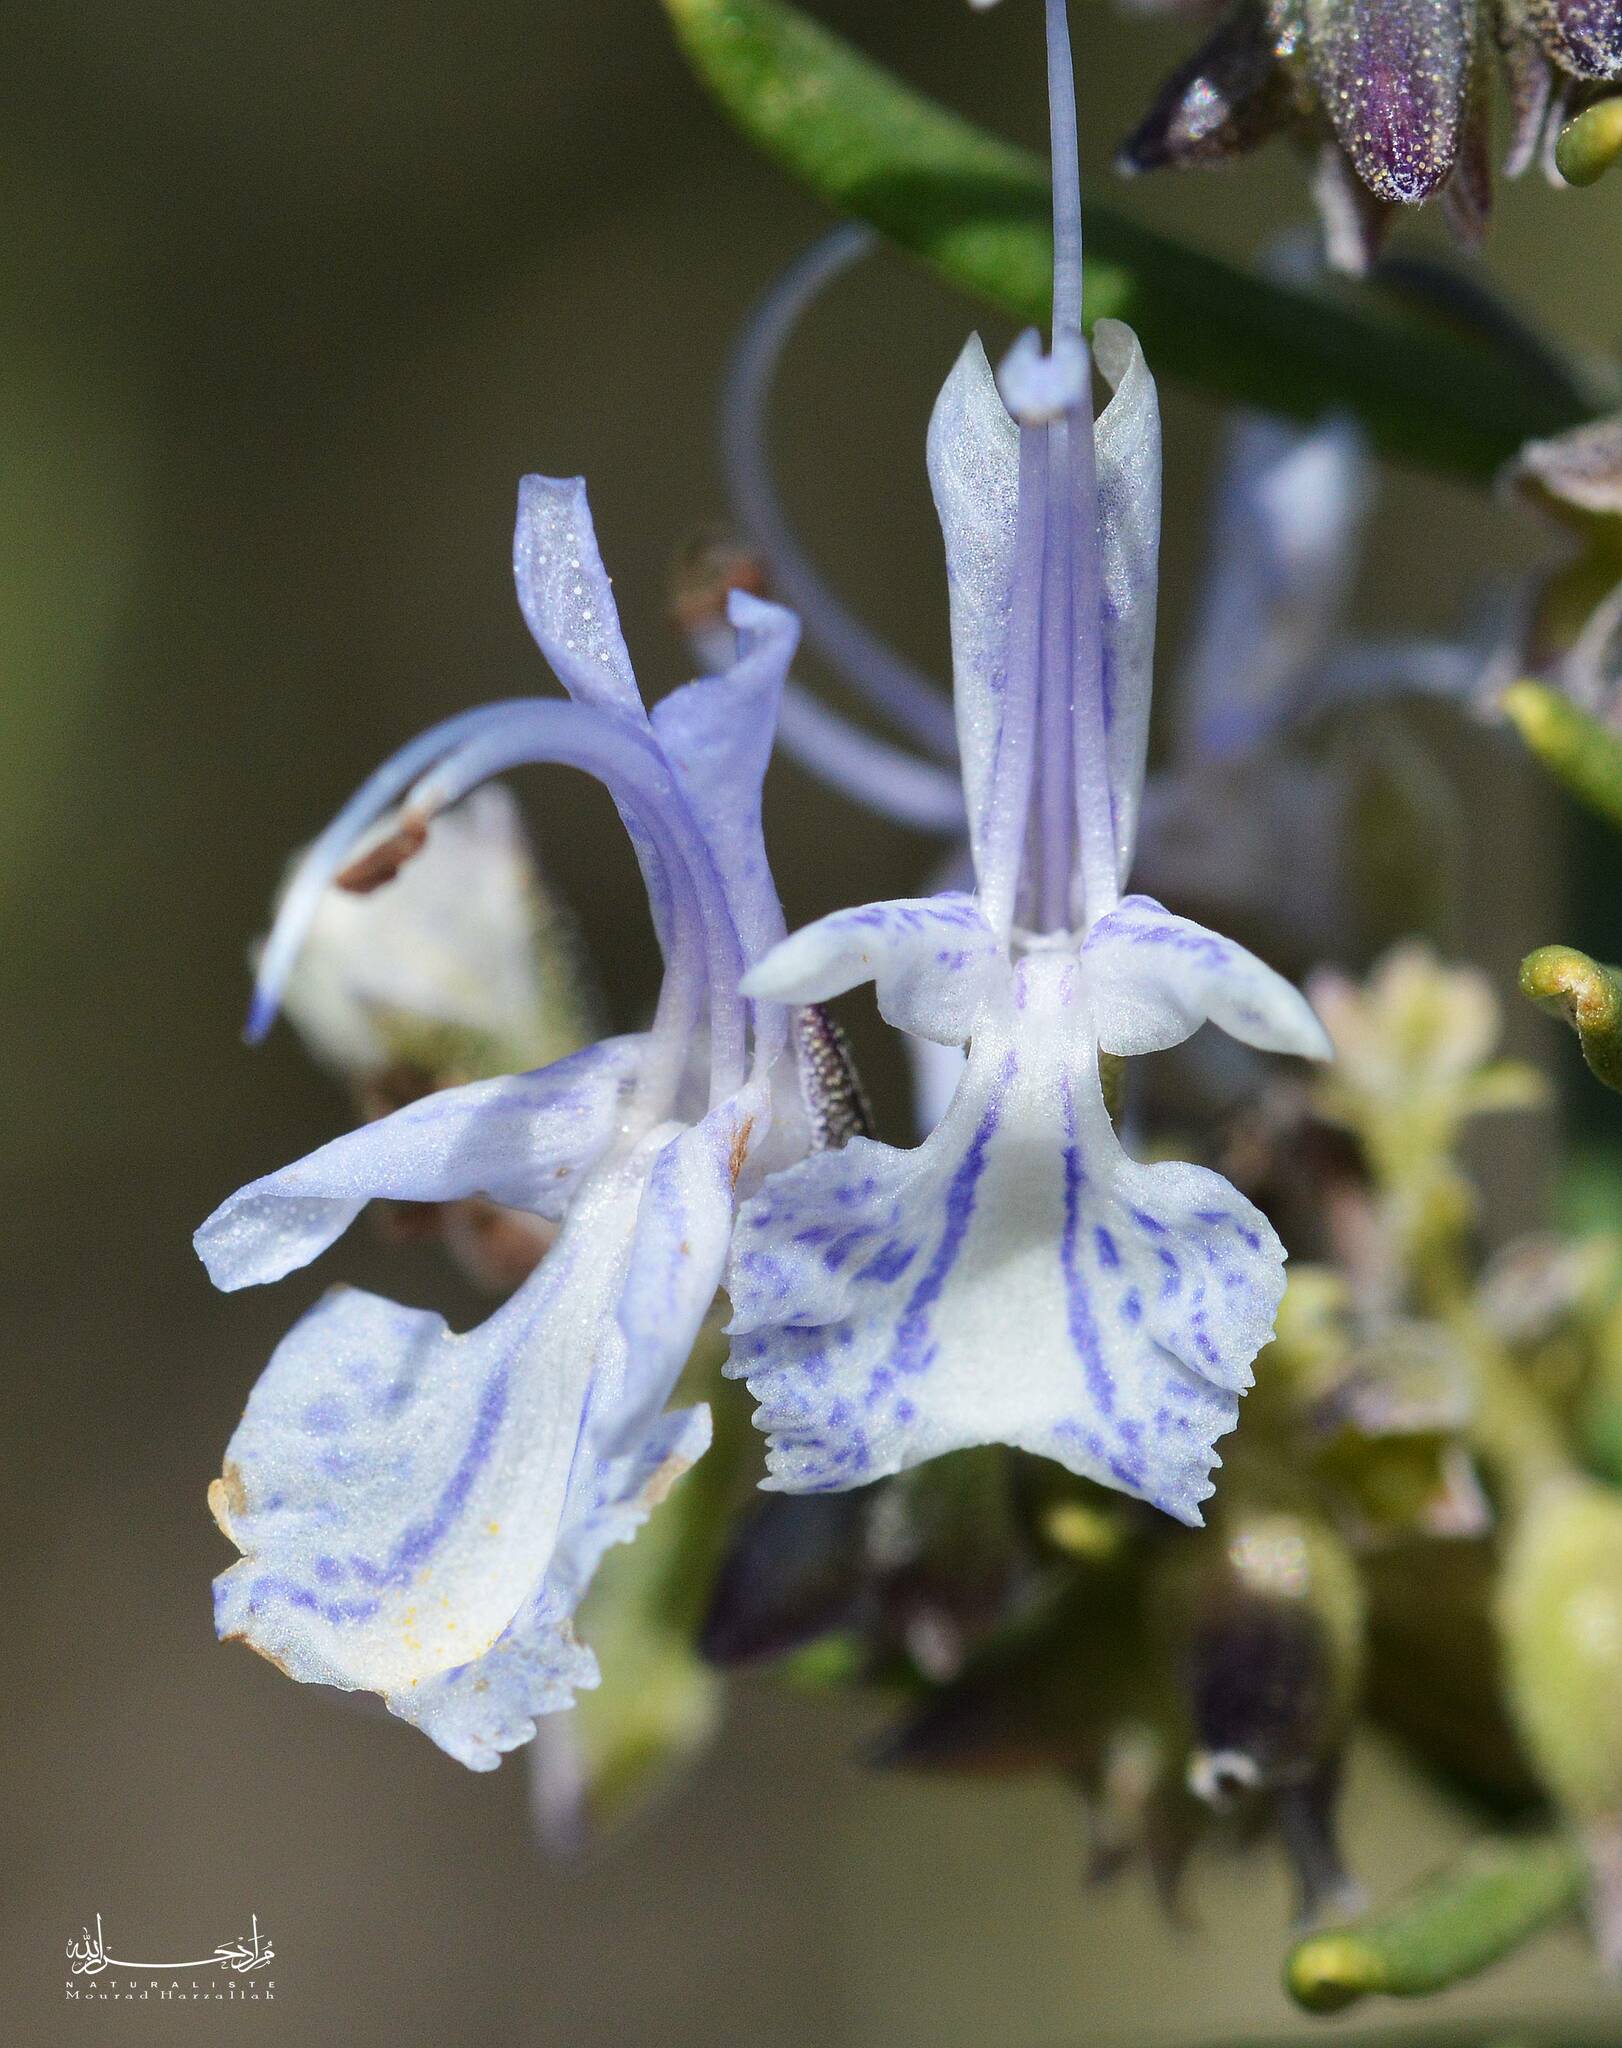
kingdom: Plantae
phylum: Tracheophyta
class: Magnoliopsida
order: Lamiales
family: Lamiaceae
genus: Salvia
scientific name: Salvia rosmarinus
